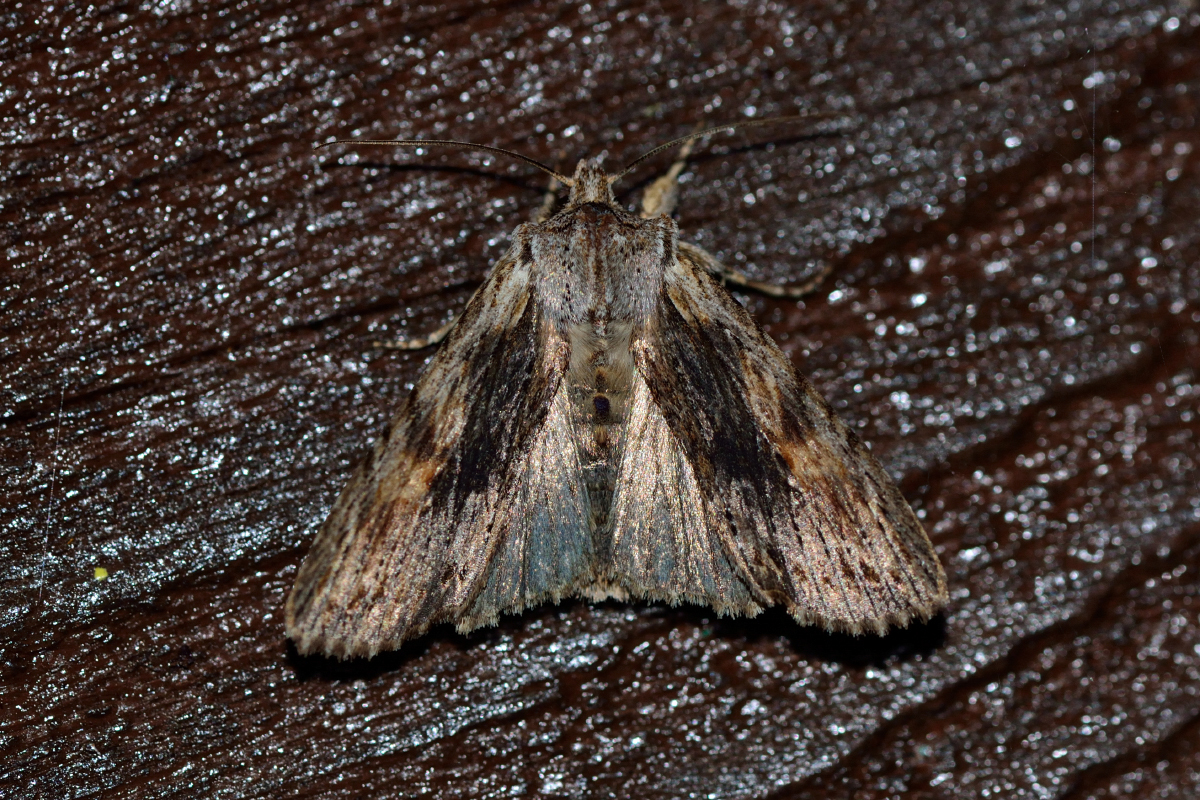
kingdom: Animalia
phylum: Arthropoda
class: Insecta
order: Lepidoptera
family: Noctuidae
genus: Lithophane
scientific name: Lithophane socia
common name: Pale pinion
